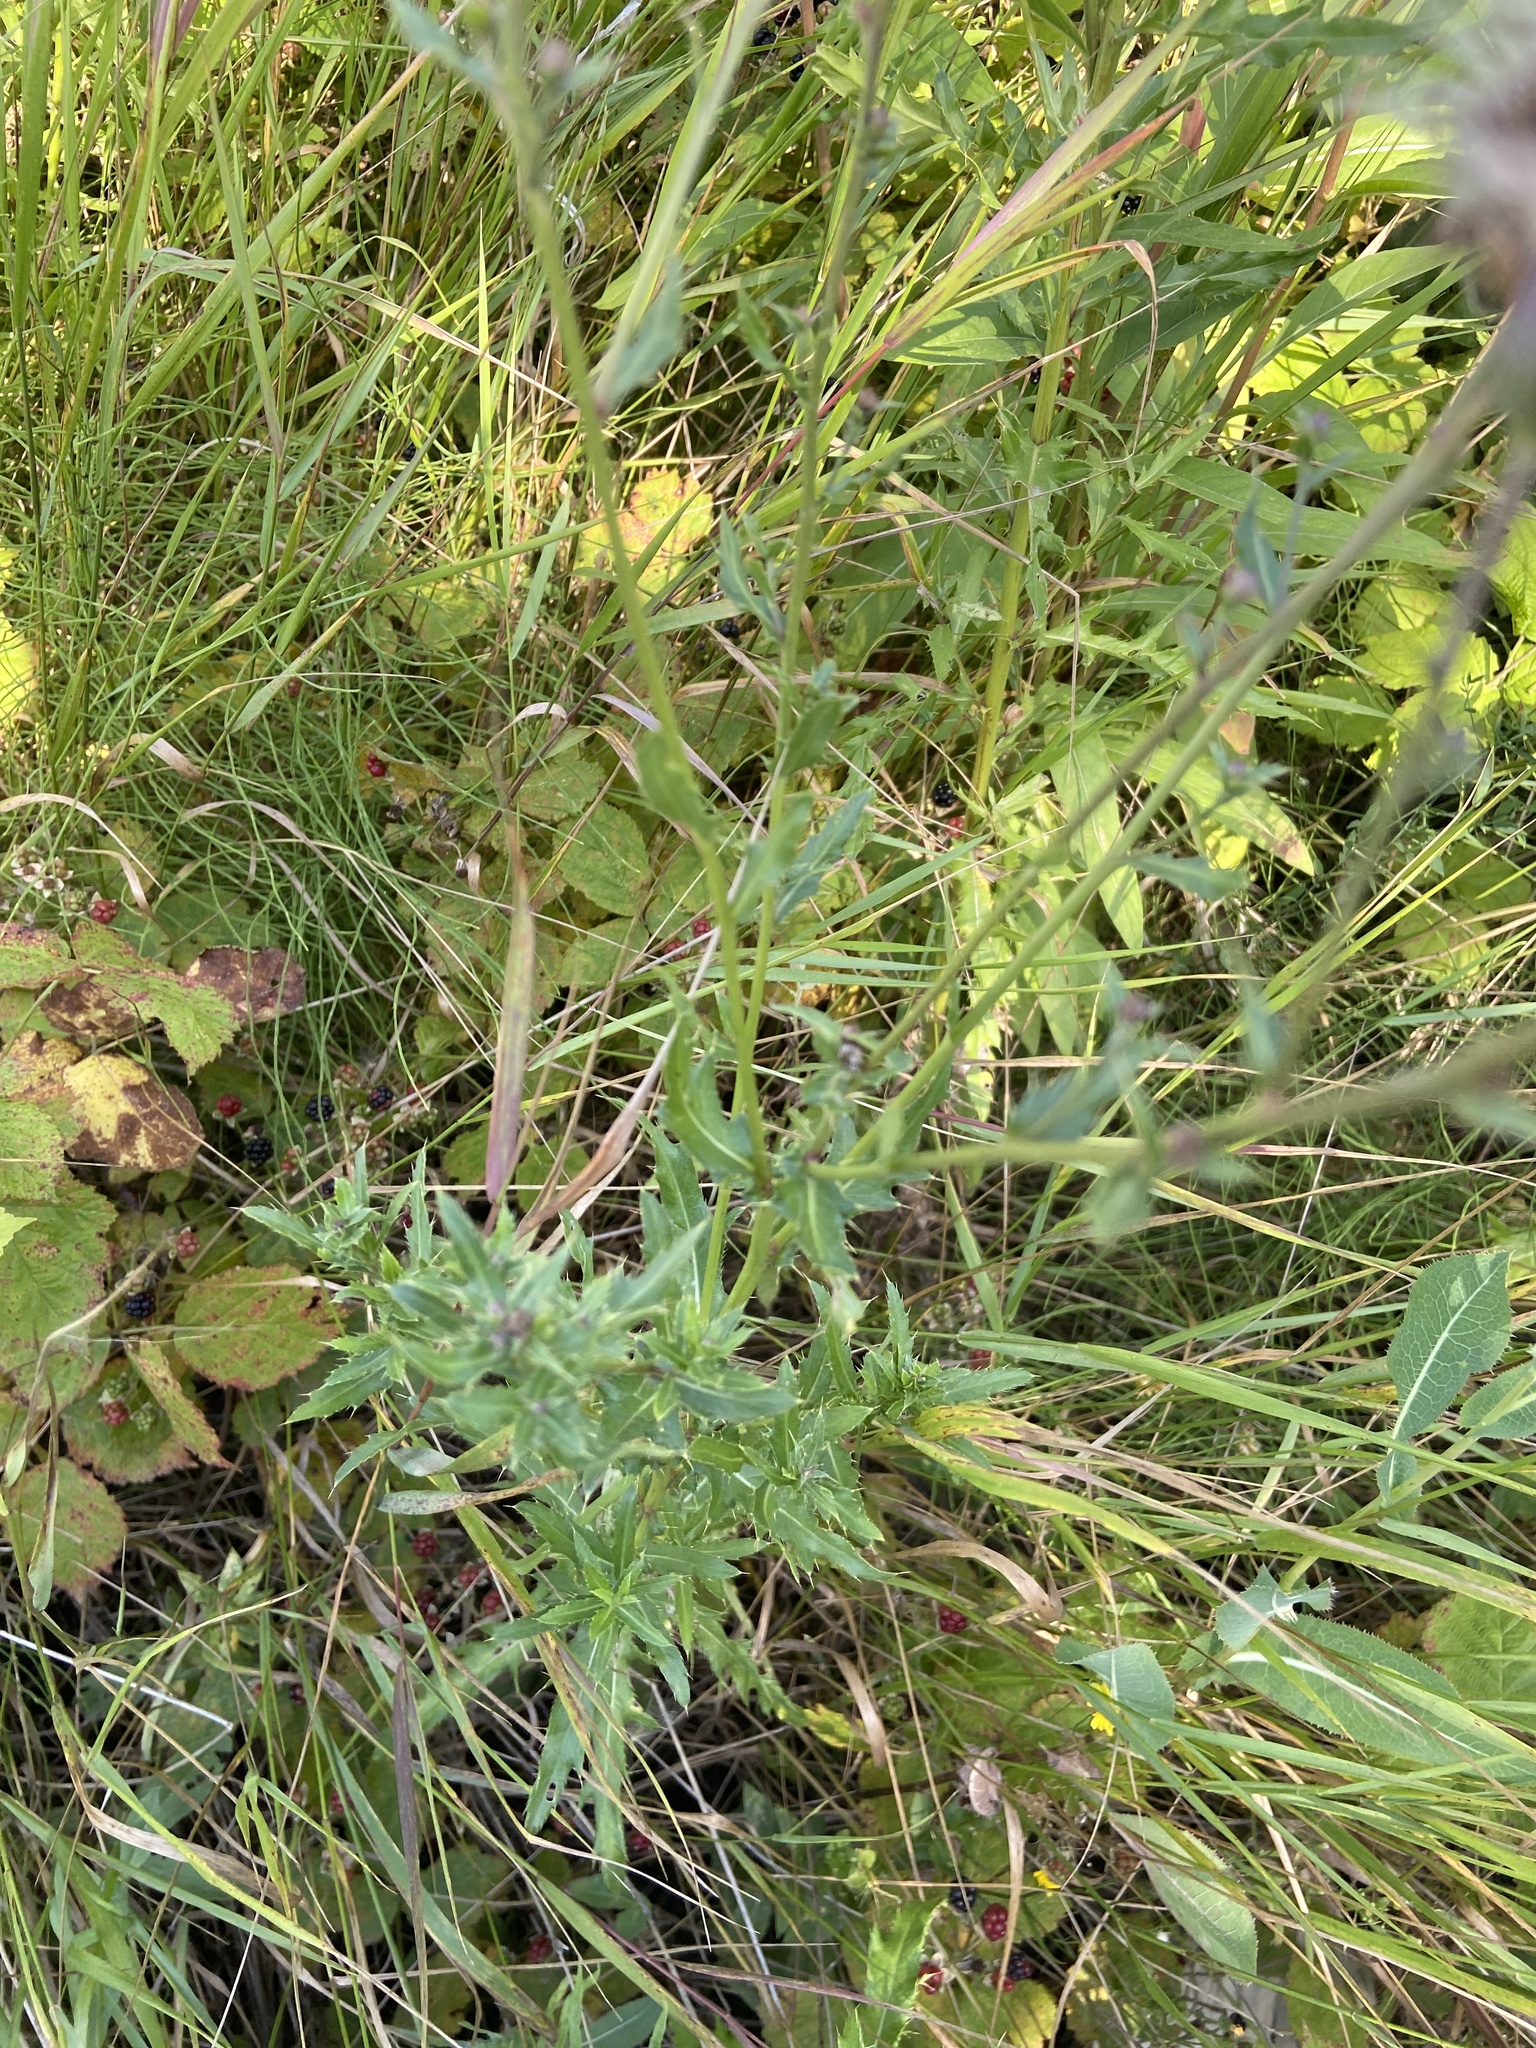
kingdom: Plantae
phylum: Tracheophyta
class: Magnoliopsida
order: Asterales
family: Asteraceae
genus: Cirsium
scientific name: Cirsium arvense
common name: Creeping thistle
